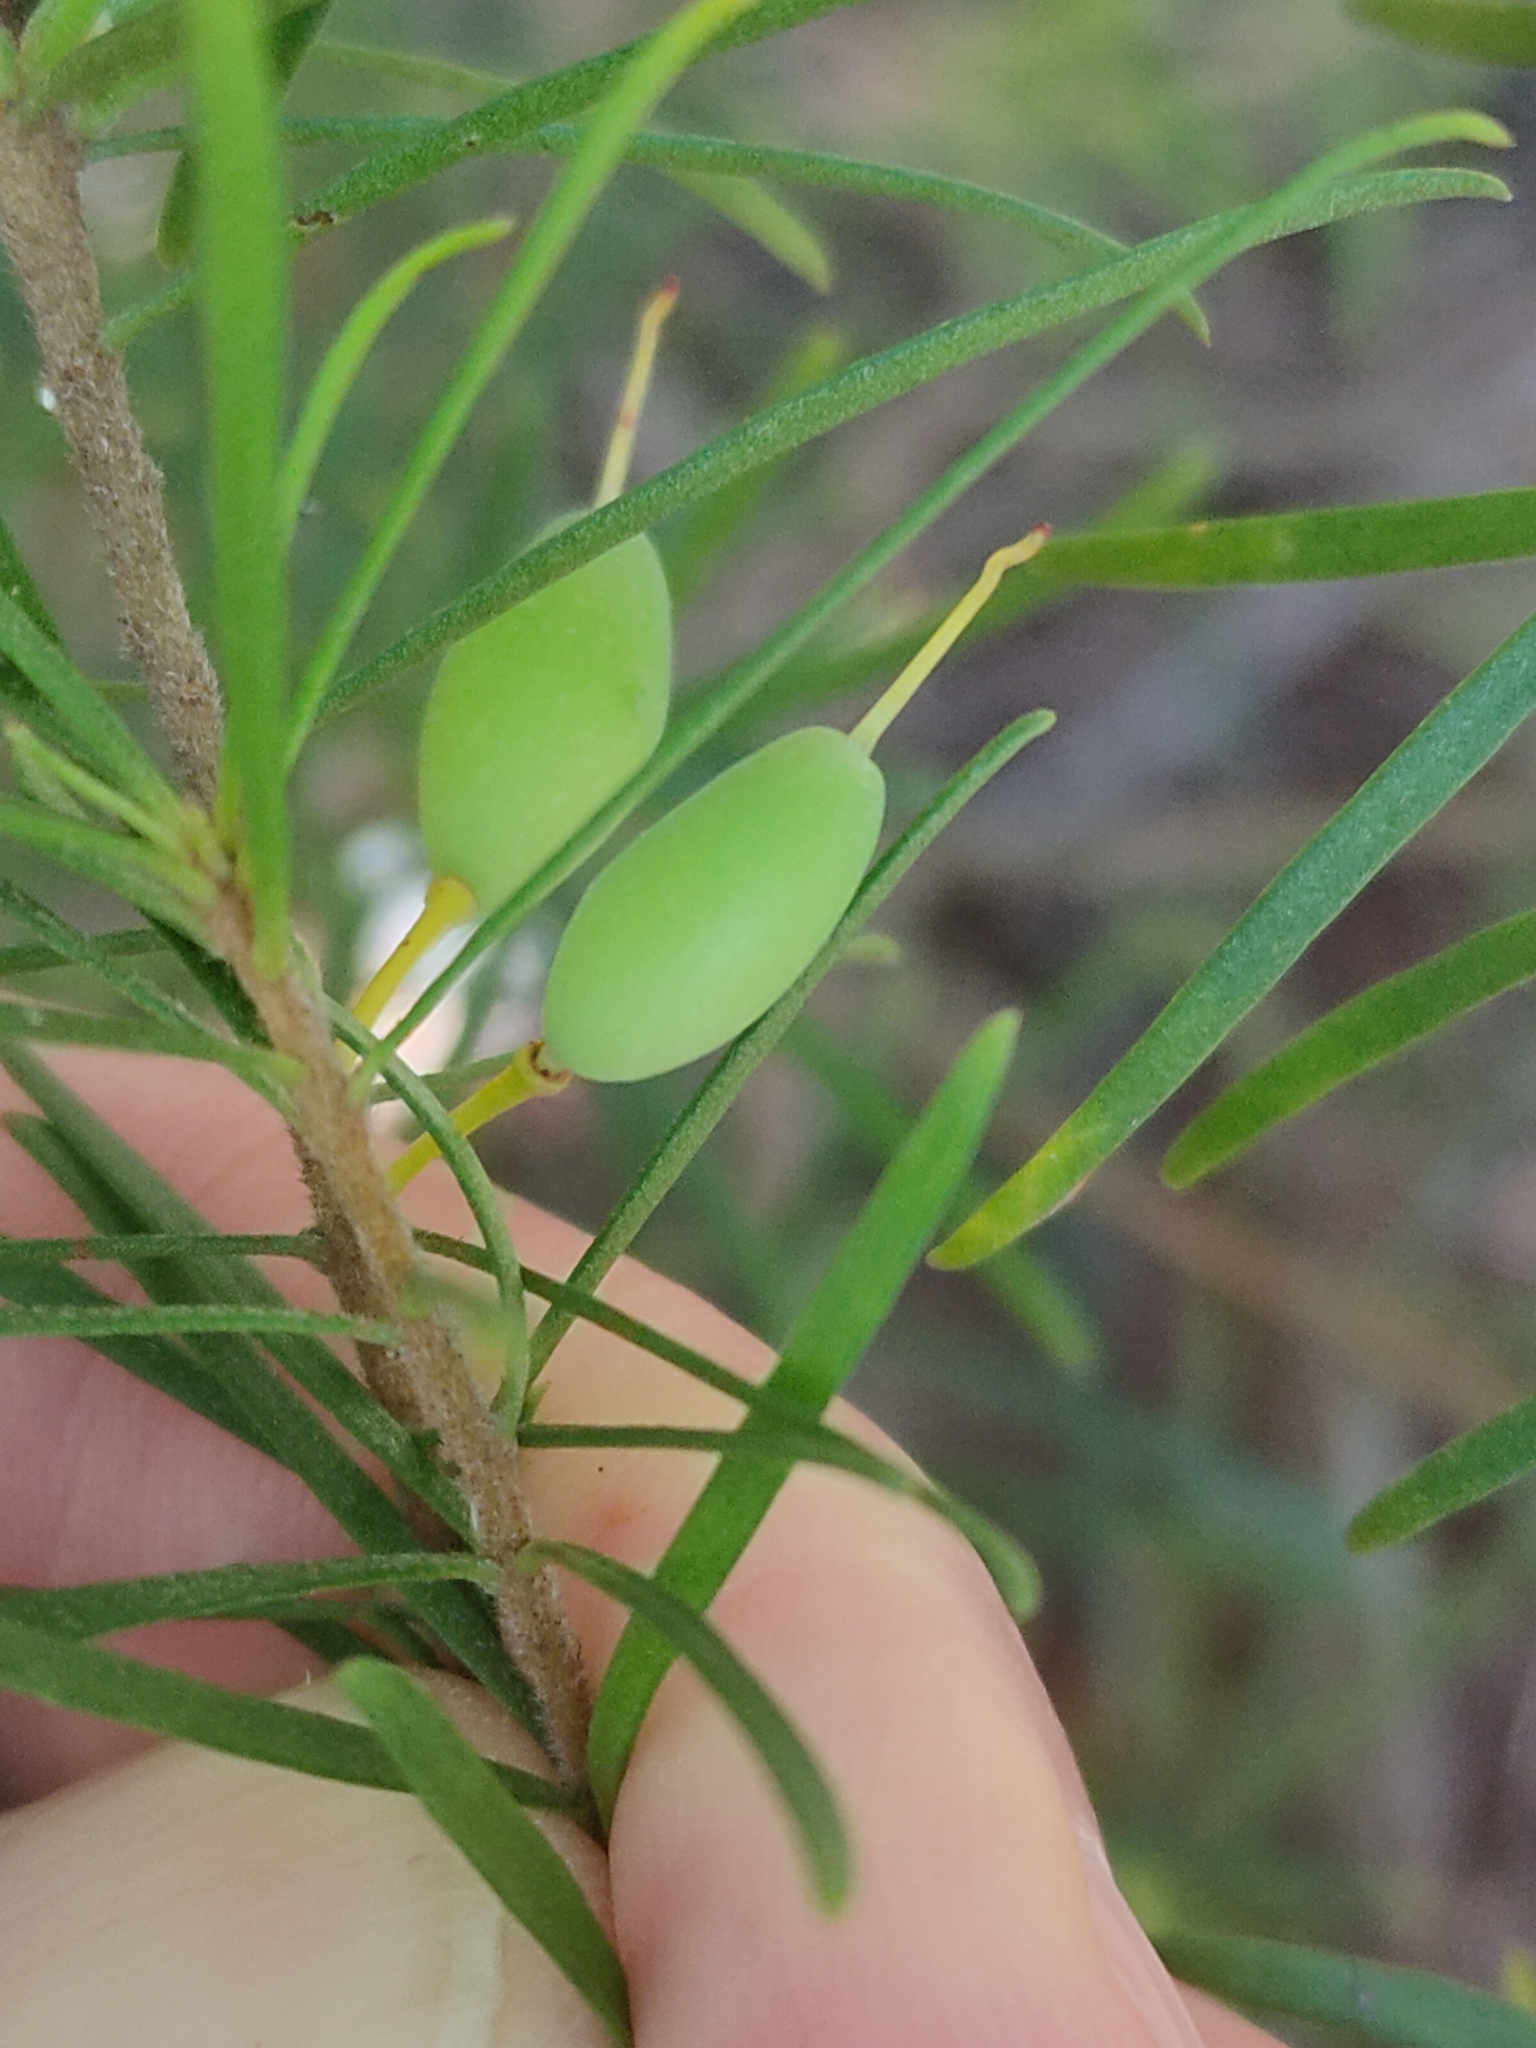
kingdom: Plantae
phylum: Tracheophyta
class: Magnoliopsida
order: Proteales
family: Proteaceae
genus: Persoonia
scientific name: Persoonia virgata
